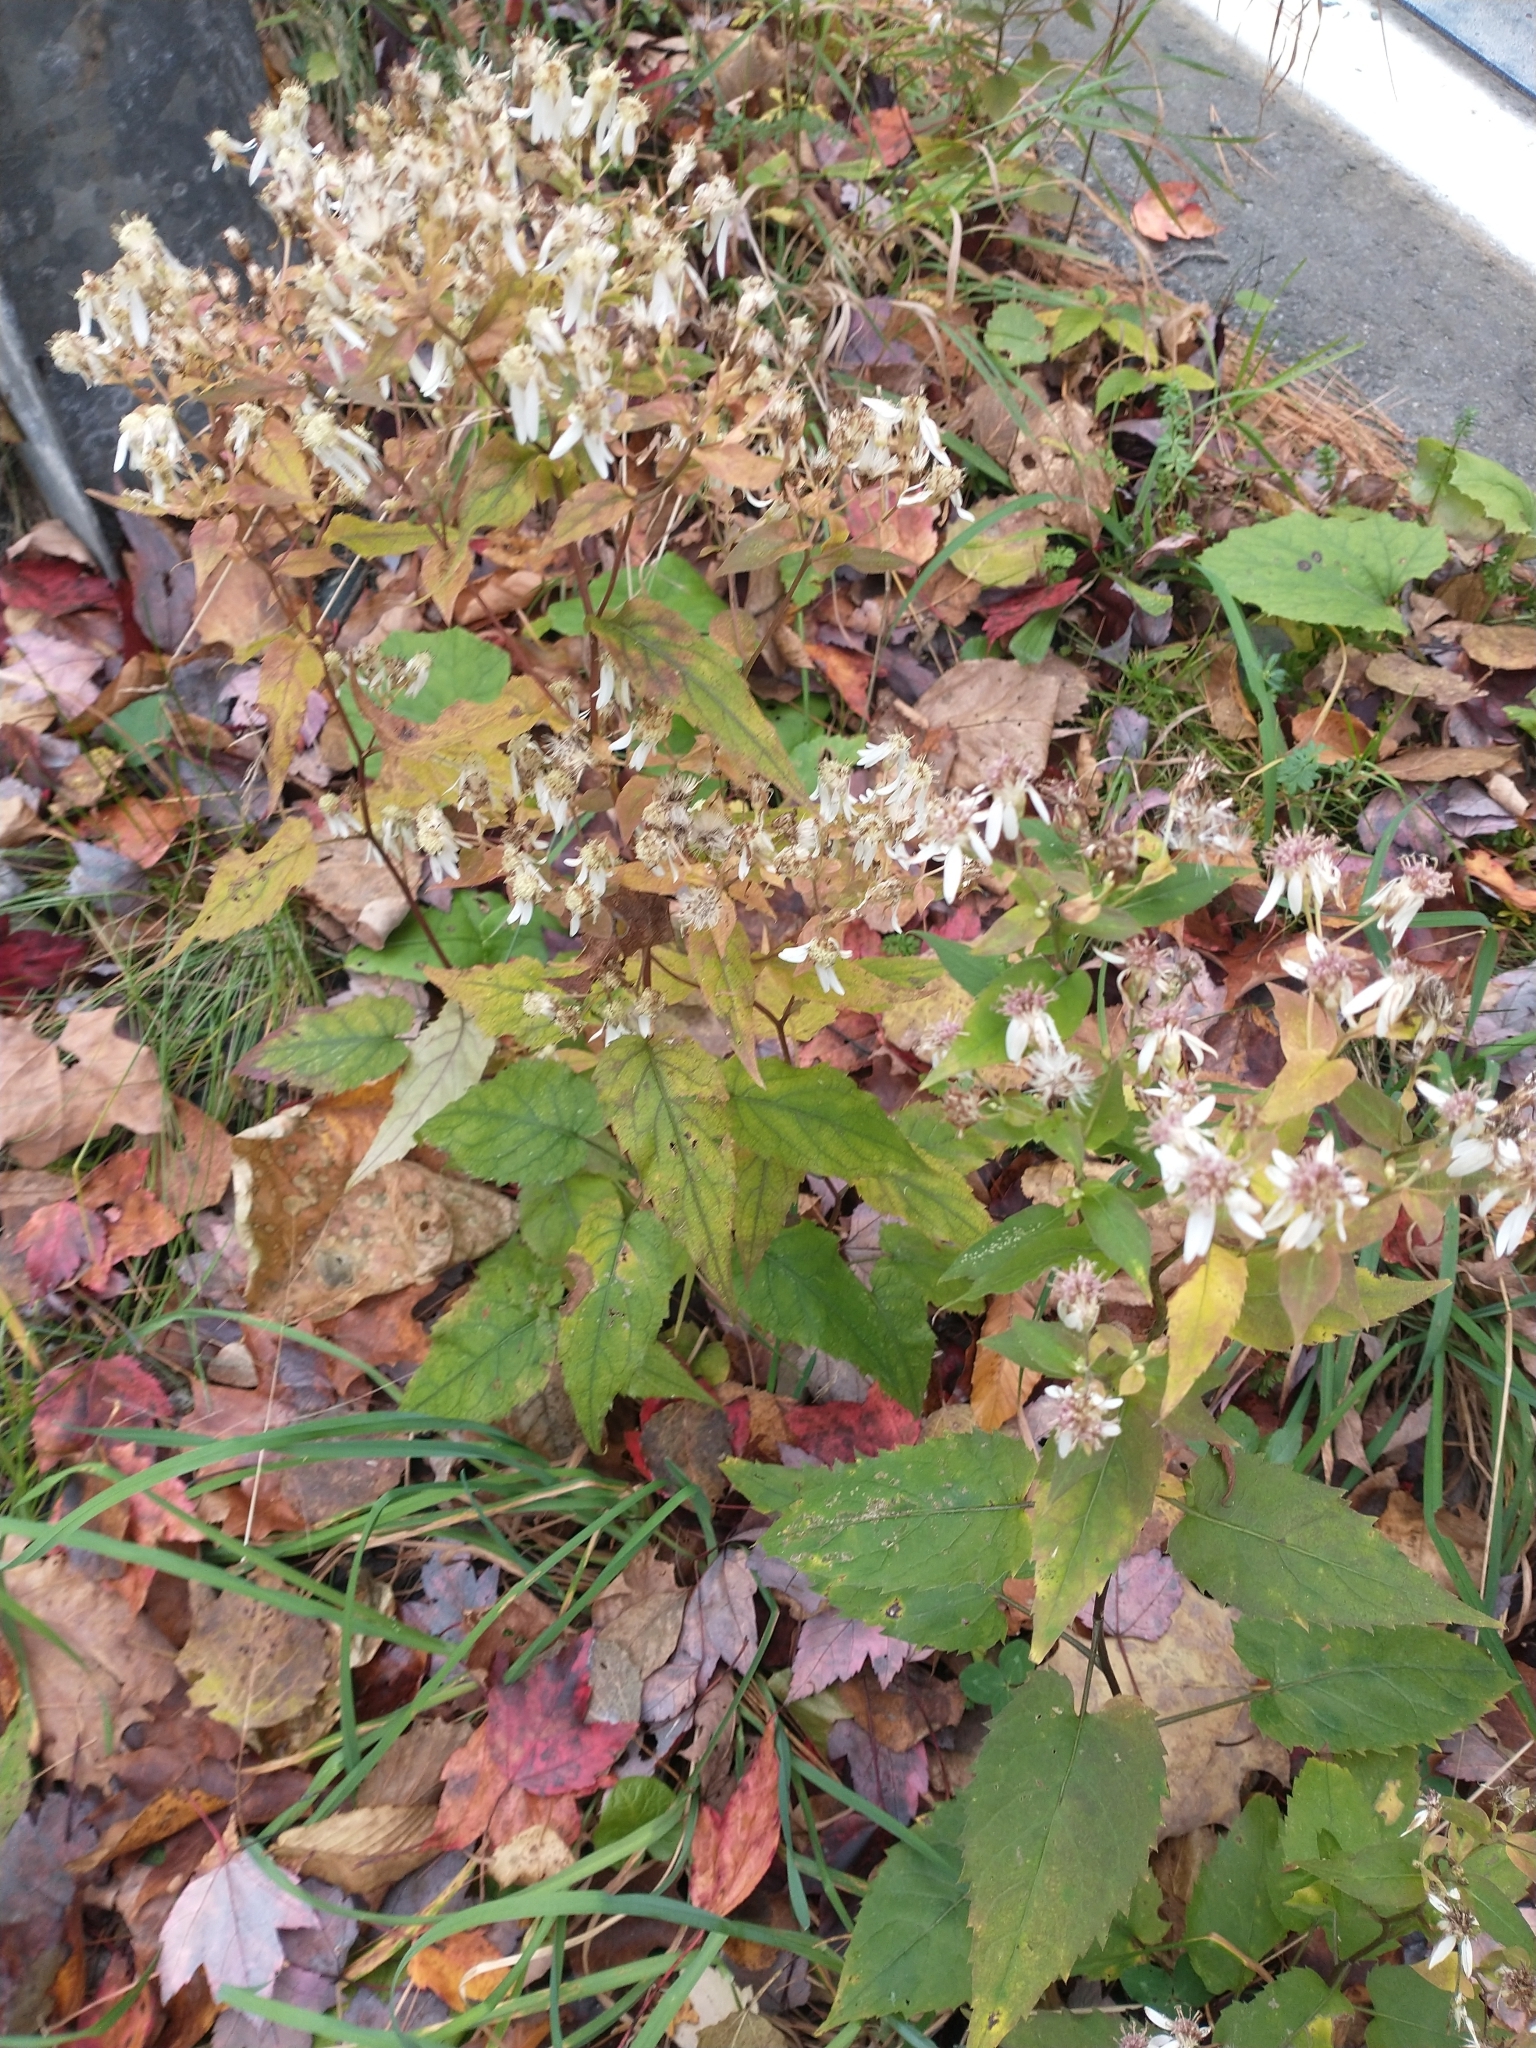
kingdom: Plantae
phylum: Tracheophyta
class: Magnoliopsida
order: Asterales
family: Asteraceae
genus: Eurybia
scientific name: Eurybia divaricata
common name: White wood aster
